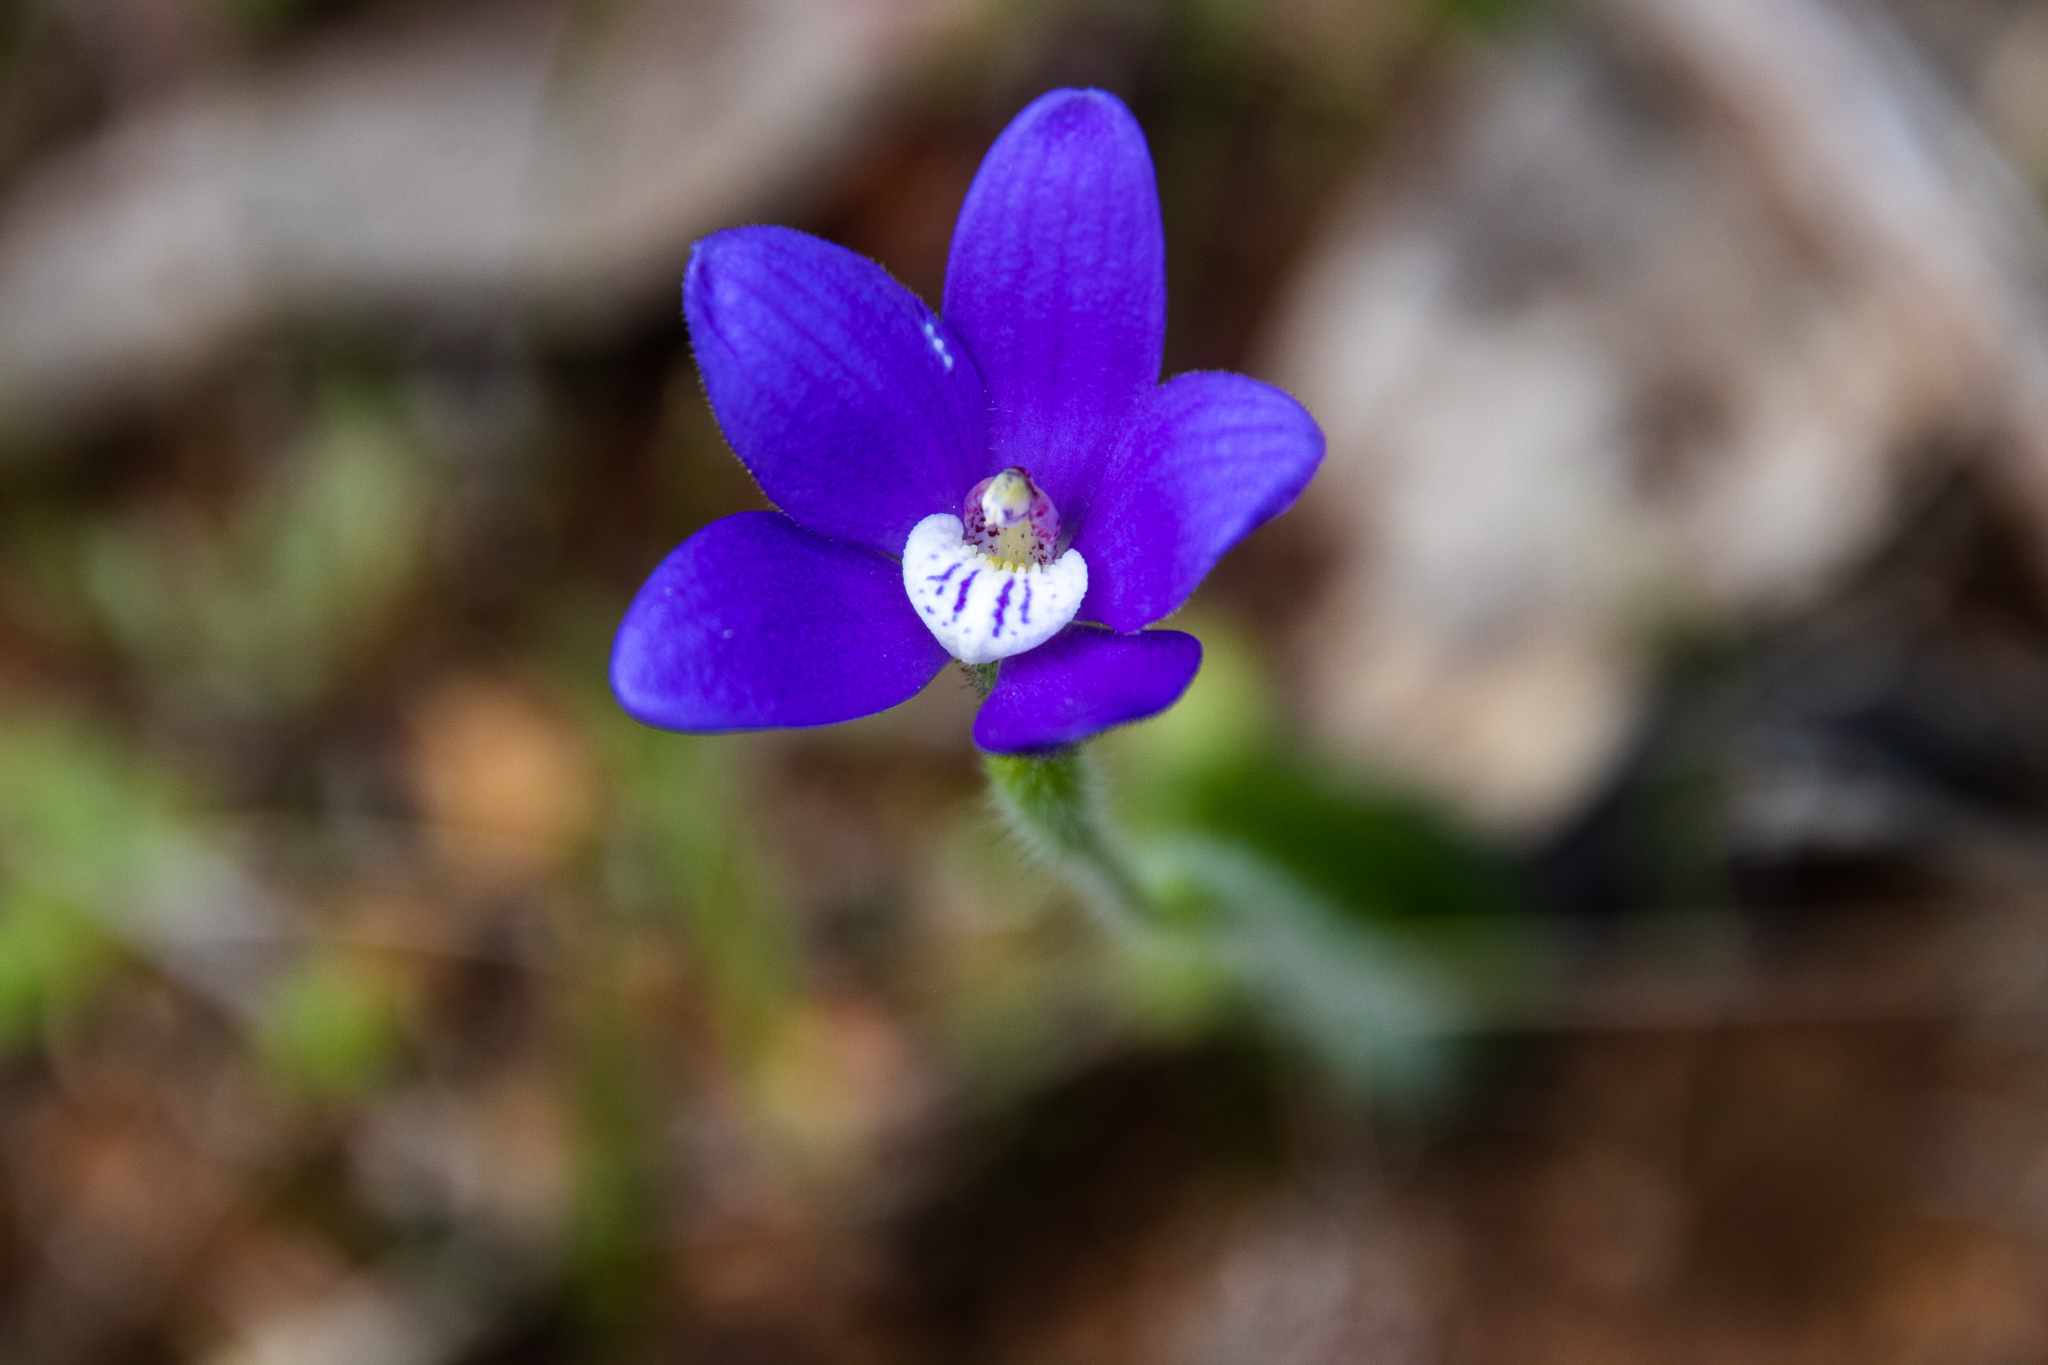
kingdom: Plantae
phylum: Tracheophyta
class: Liliopsida
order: Asparagales
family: Orchidaceae
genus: Caladenia
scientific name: Caladenia gemmata
